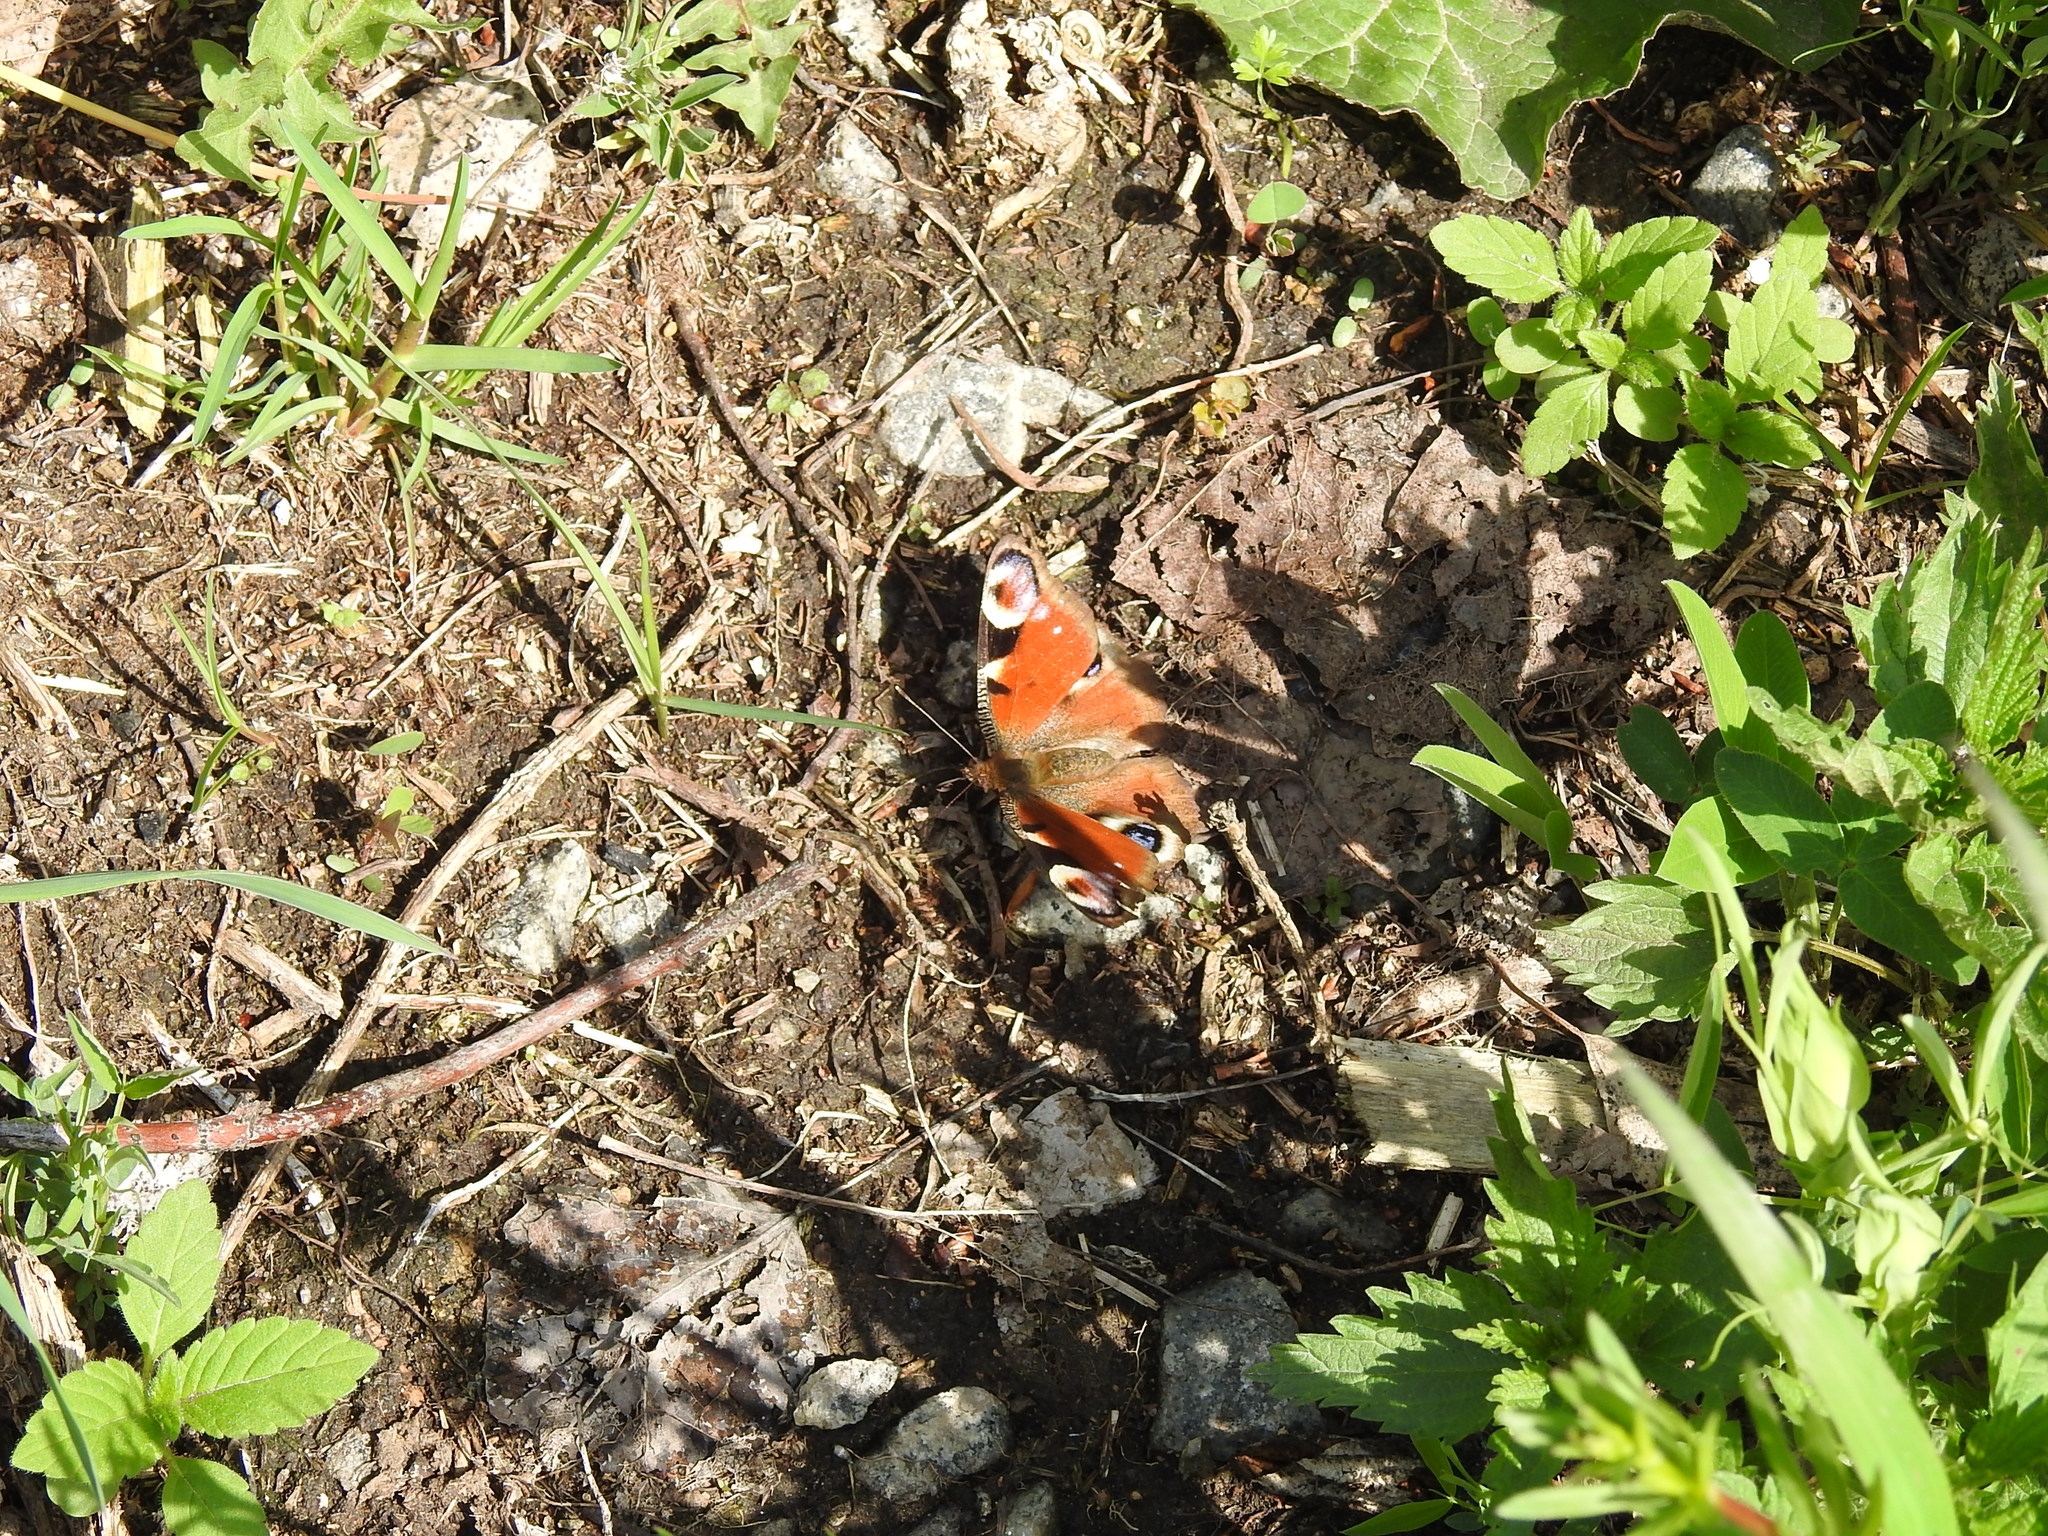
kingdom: Animalia
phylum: Arthropoda
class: Insecta
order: Lepidoptera
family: Nymphalidae
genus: Aglais
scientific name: Aglais io
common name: Peacock
